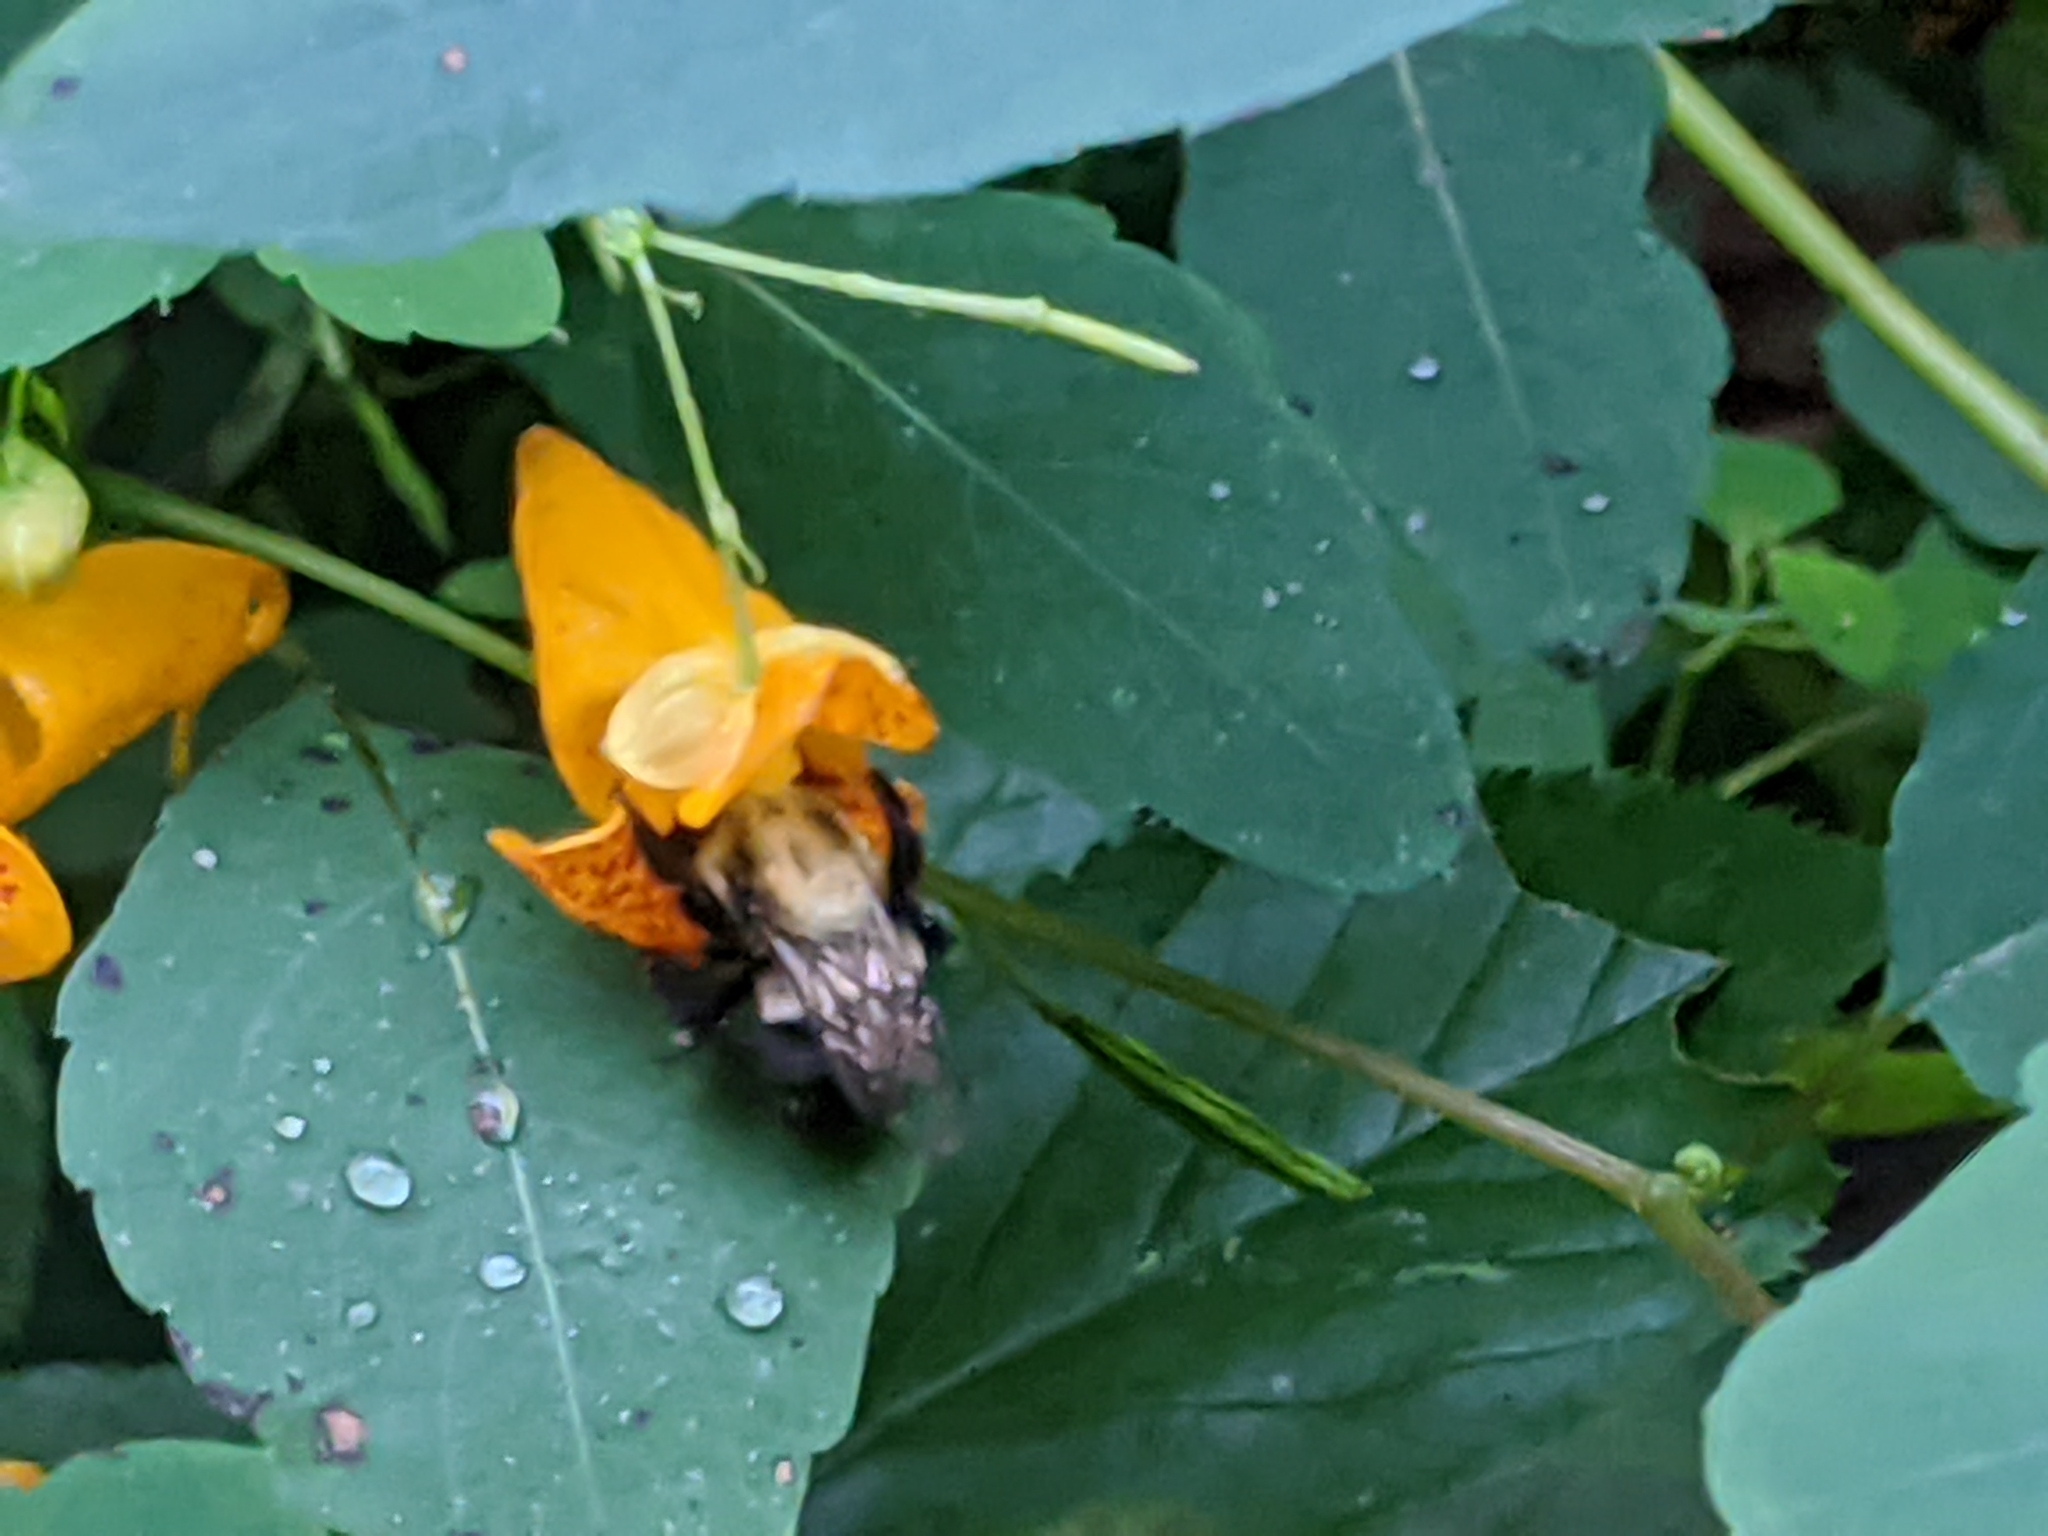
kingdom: Animalia
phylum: Arthropoda
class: Insecta
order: Hymenoptera
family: Apidae
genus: Bombus
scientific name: Bombus impatiens
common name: Common eastern bumble bee
